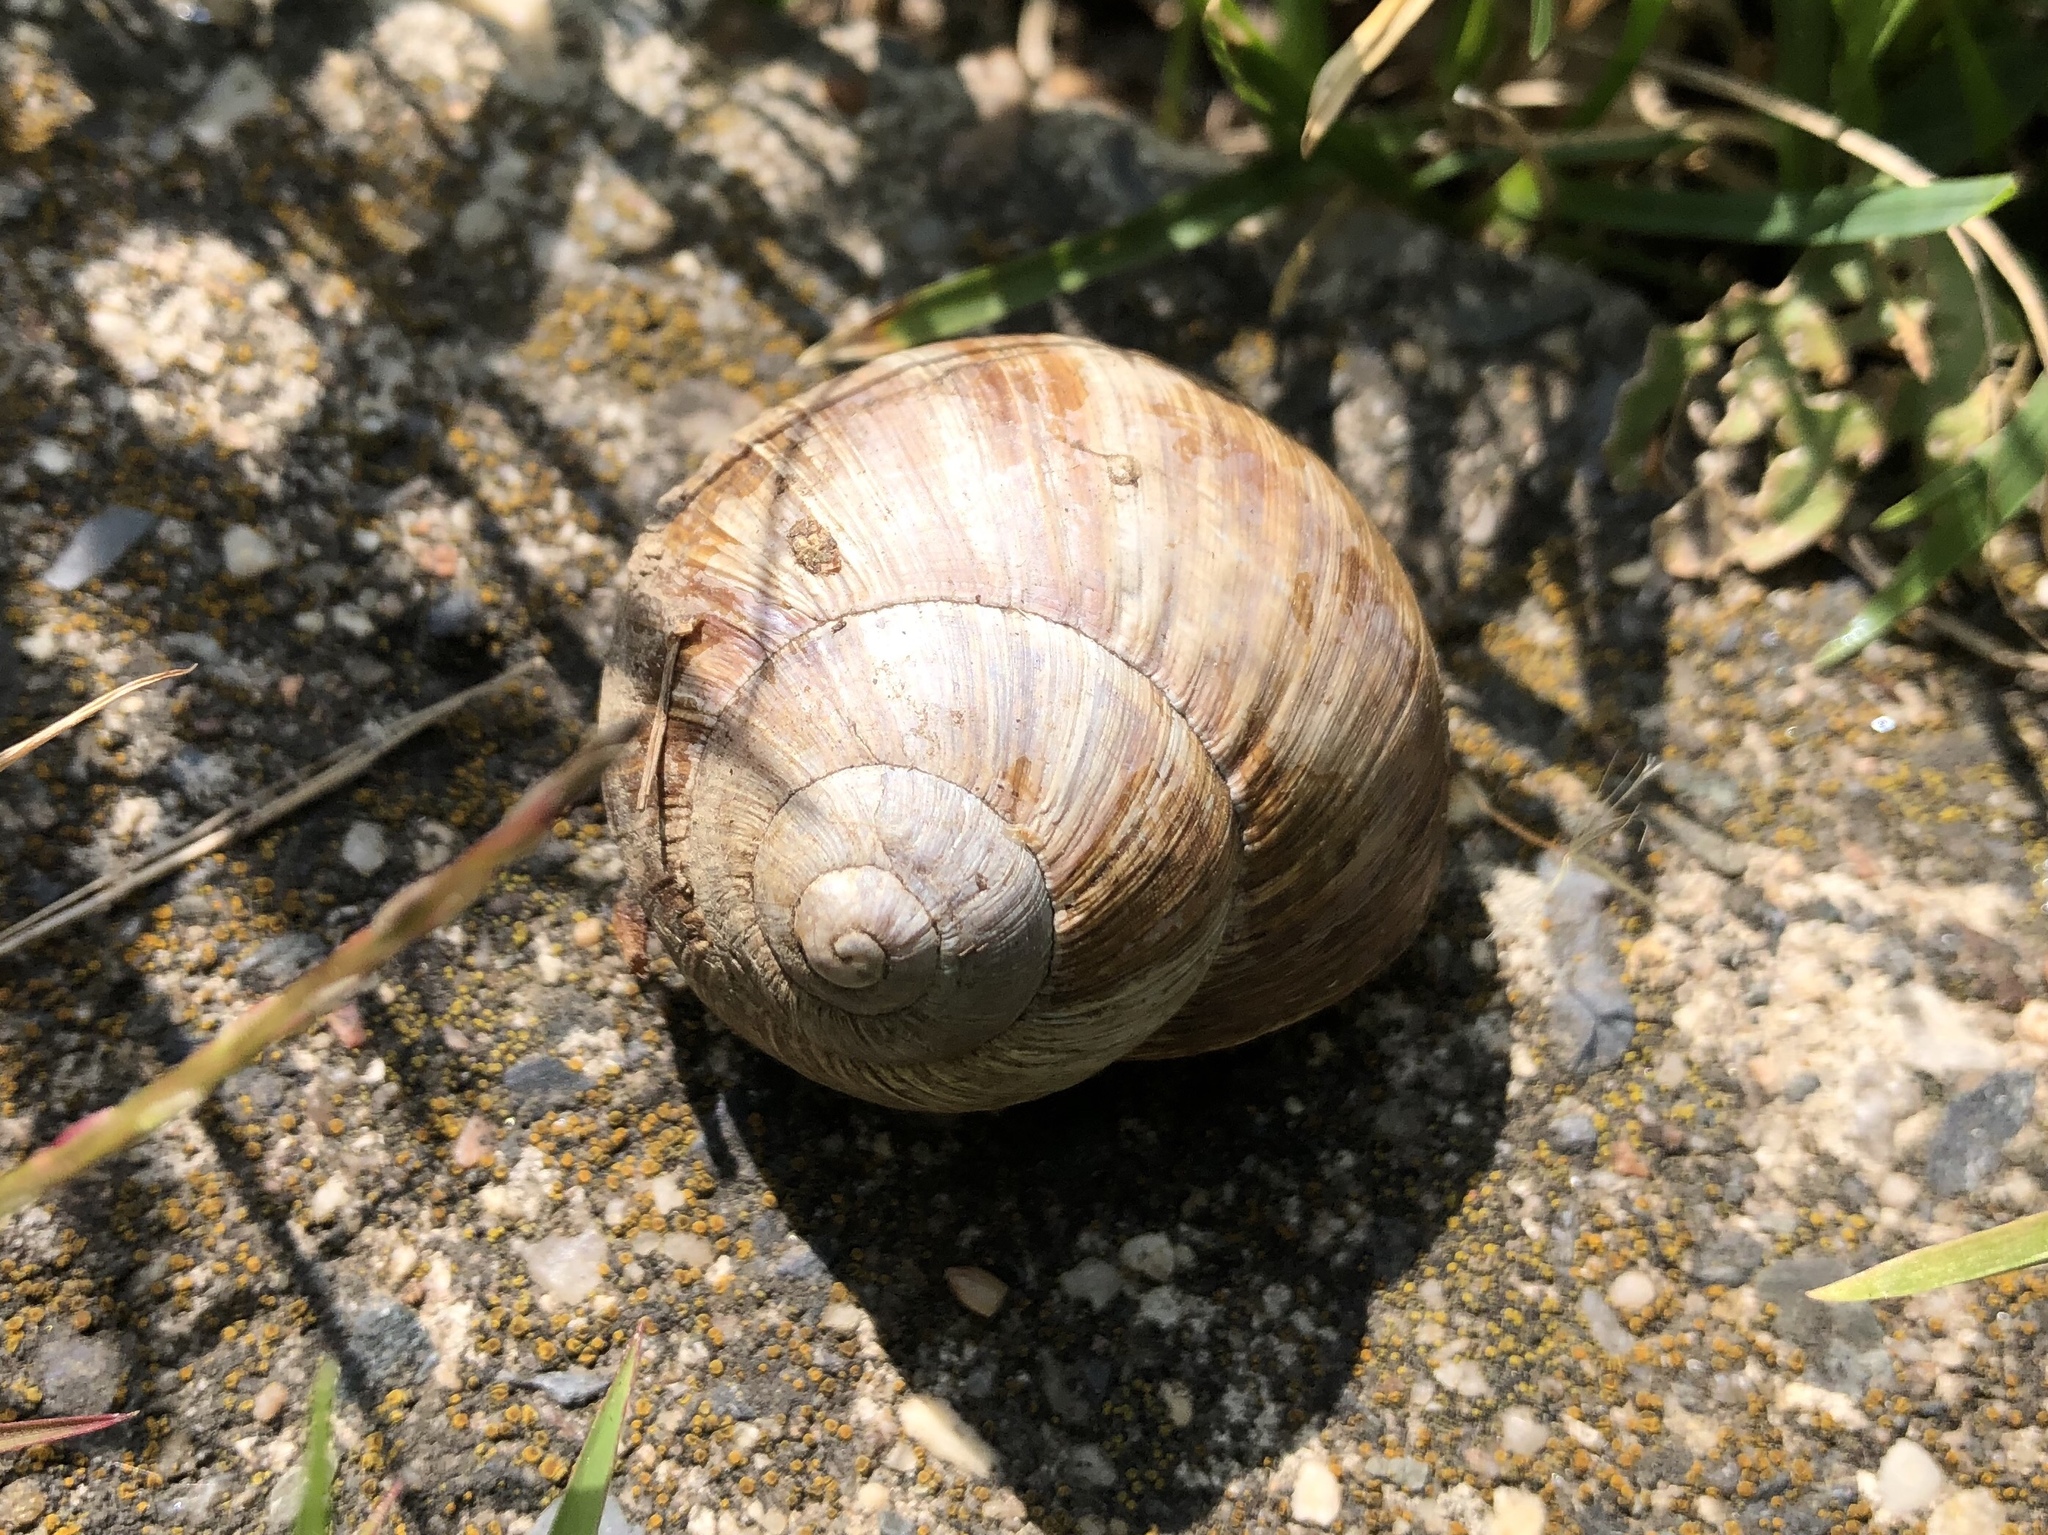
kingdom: Animalia
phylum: Mollusca
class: Gastropoda
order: Stylommatophora
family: Helicidae
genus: Helix
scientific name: Helix pomatia
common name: Roman snail
